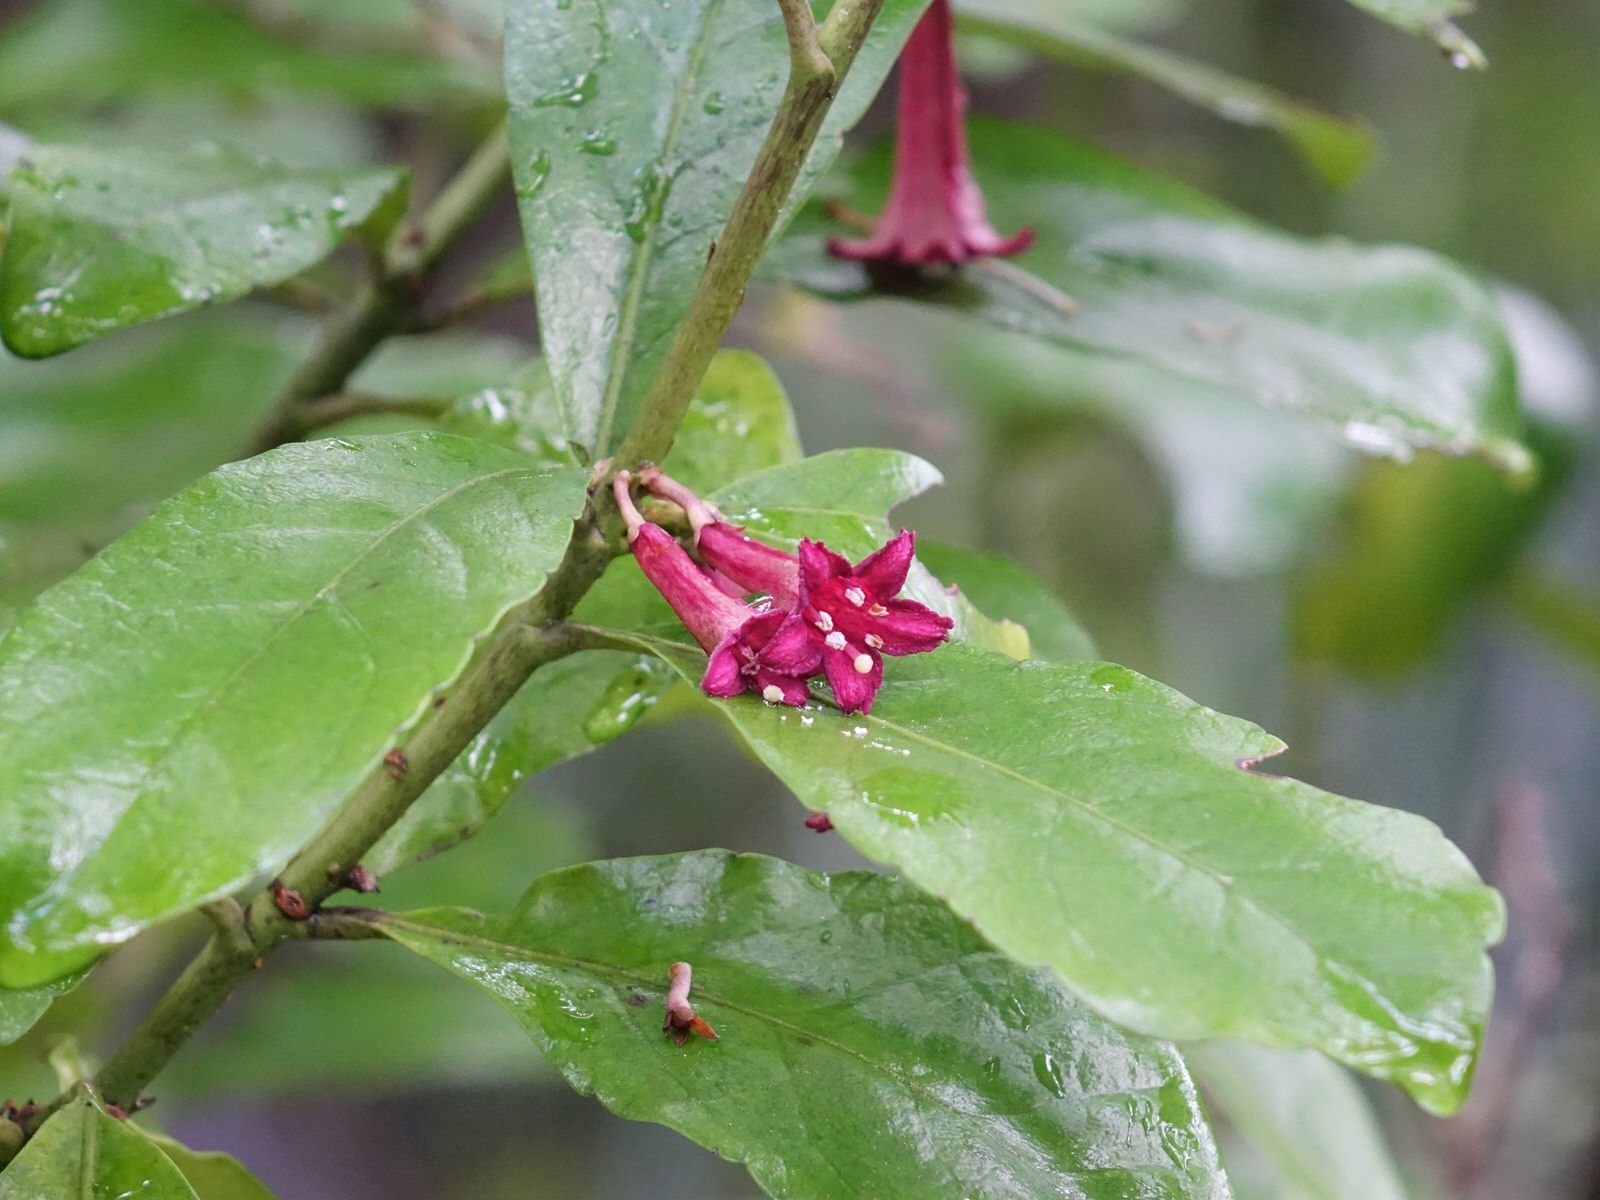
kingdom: Plantae
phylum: Tracheophyta
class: Magnoliopsida
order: Asterales
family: Alseuosmiaceae
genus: Alseuosmia
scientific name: Alseuosmia macrophylla
